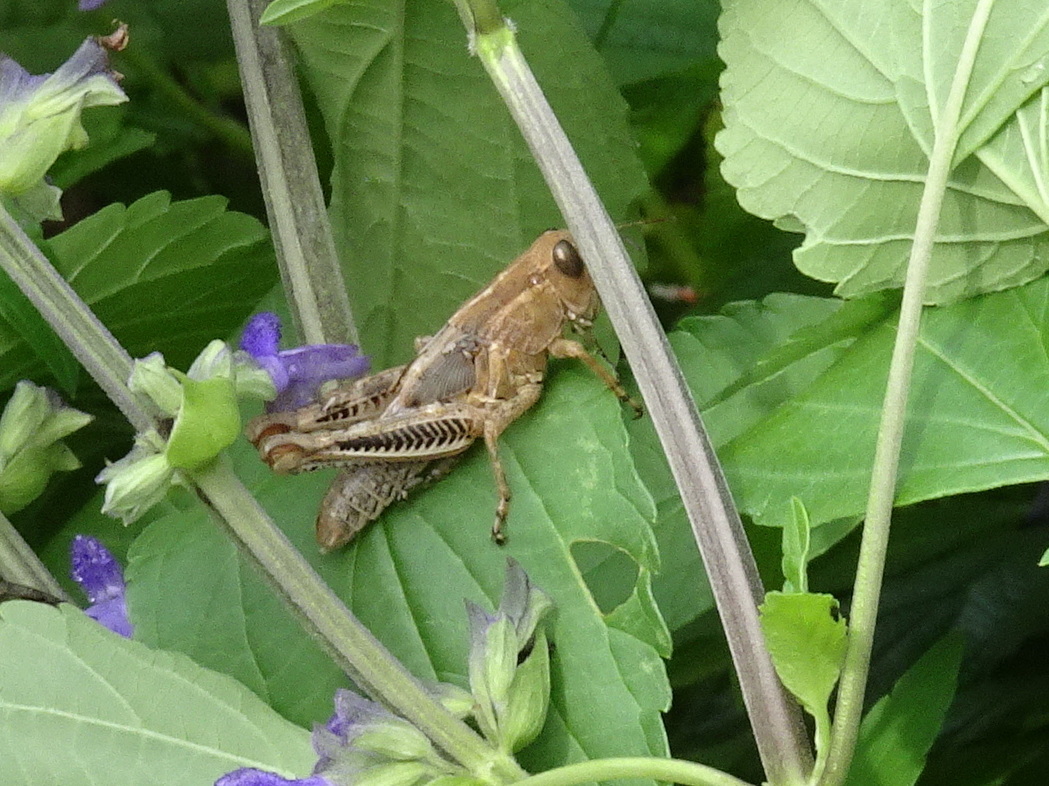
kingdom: Animalia
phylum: Arthropoda
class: Insecta
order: Orthoptera
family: Acrididae
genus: Melanoplus
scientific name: Melanoplus differentialis
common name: Differential grasshopper
